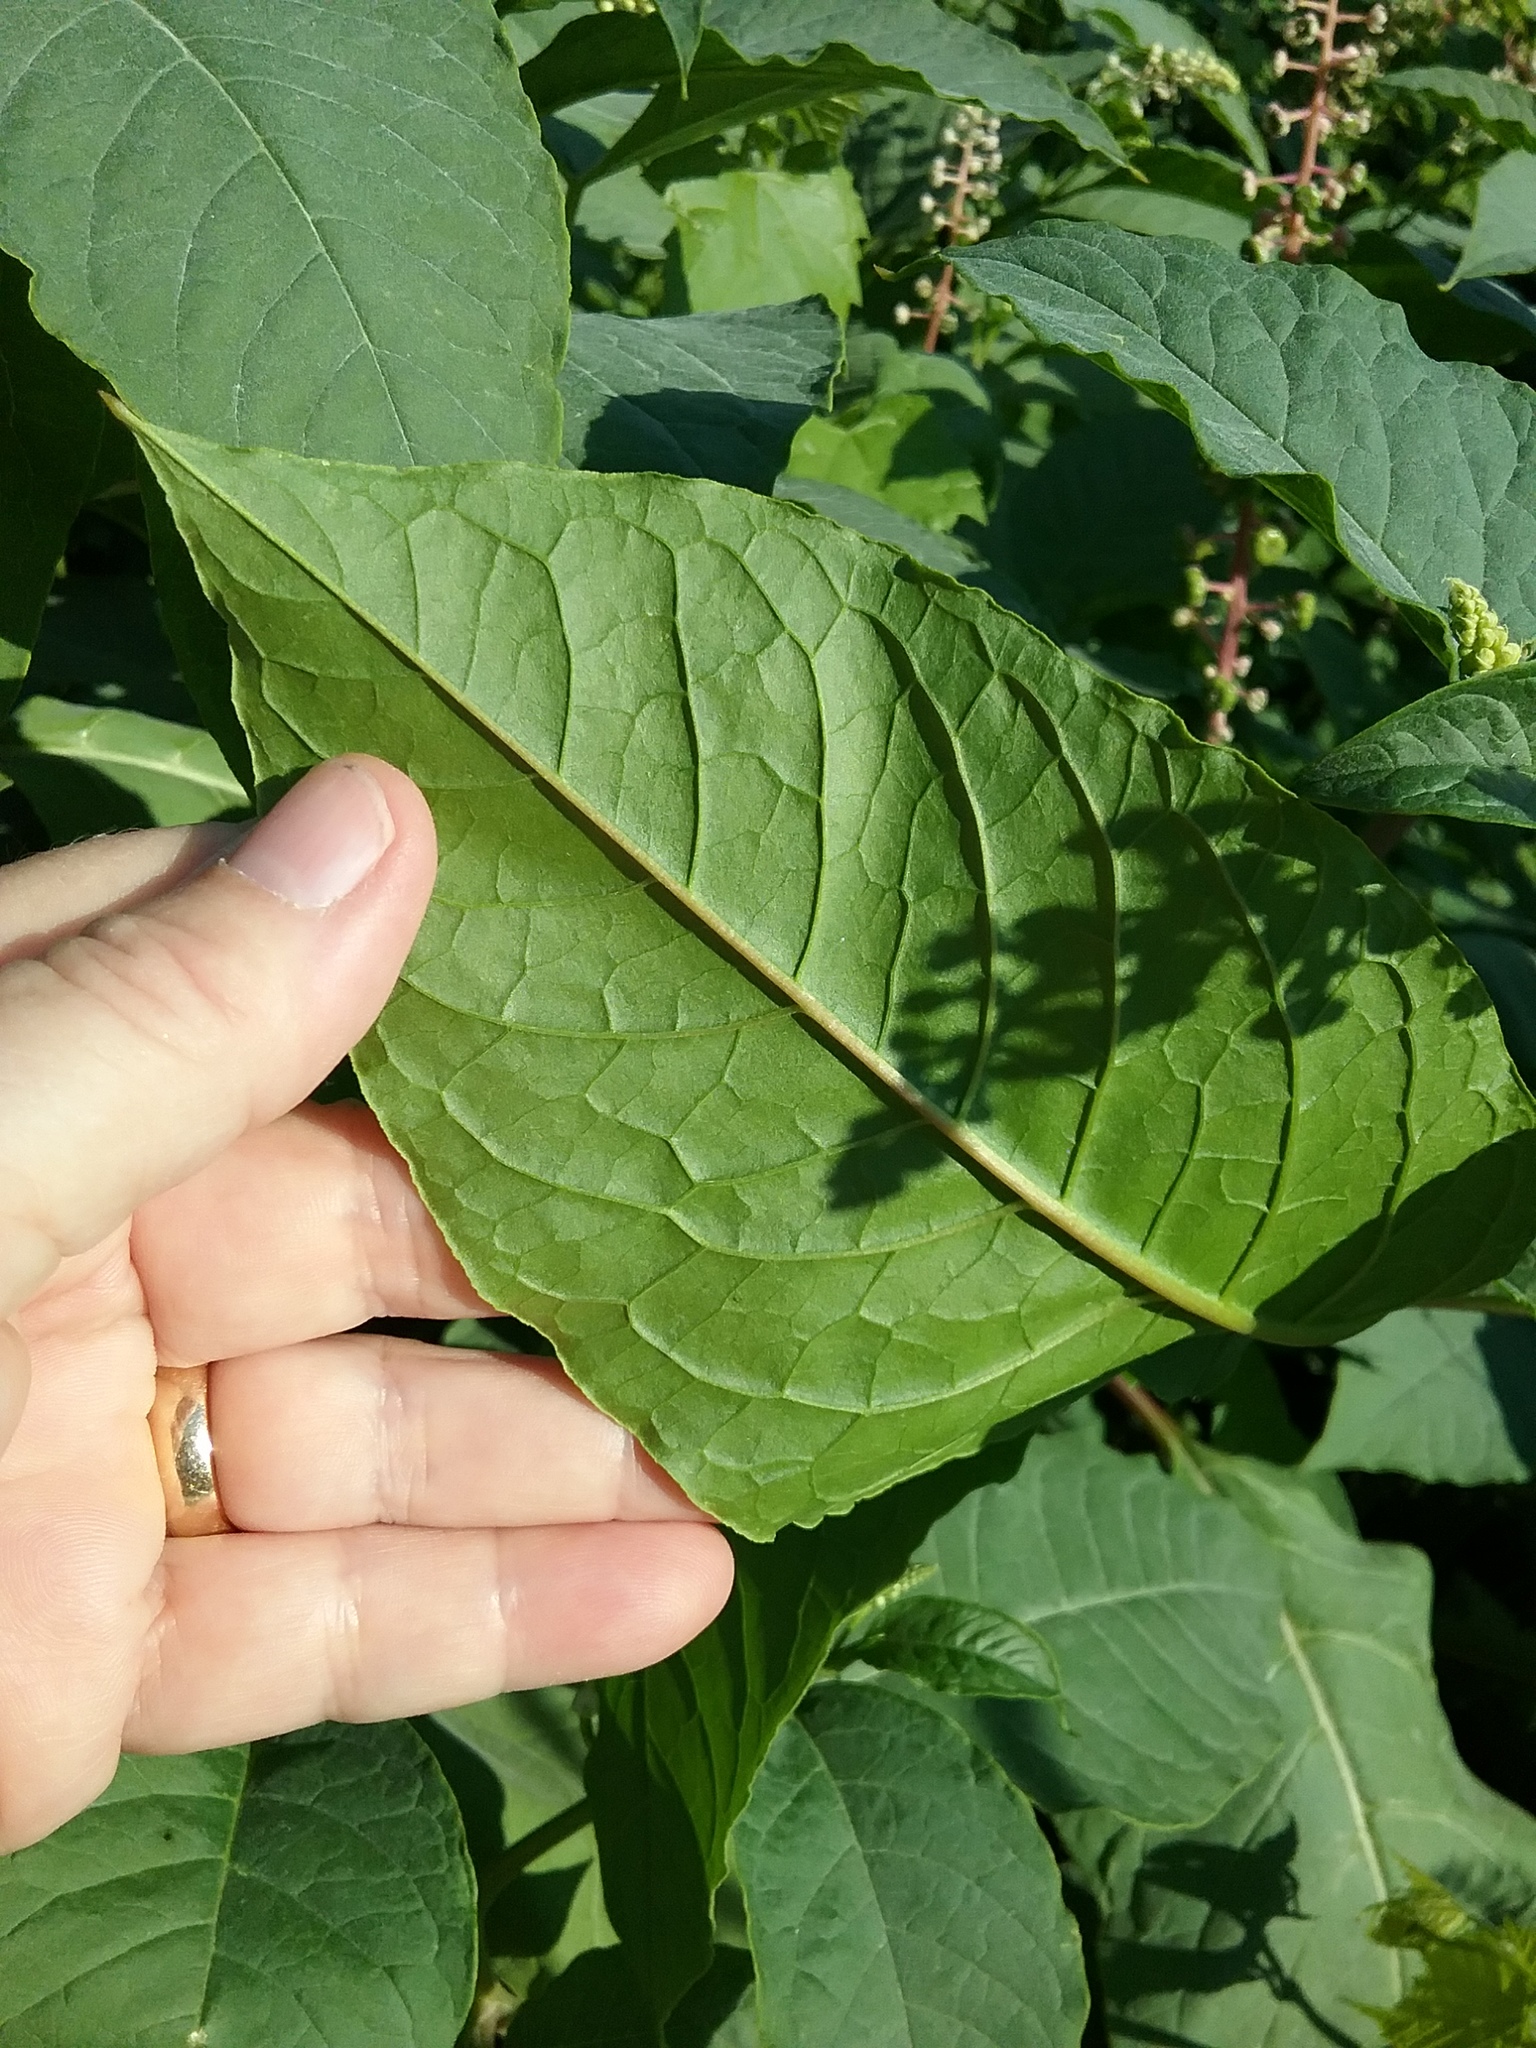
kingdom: Plantae
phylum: Tracheophyta
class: Magnoliopsida
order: Caryophyllales
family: Phytolaccaceae
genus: Phytolacca
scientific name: Phytolacca americana
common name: American pokeweed
